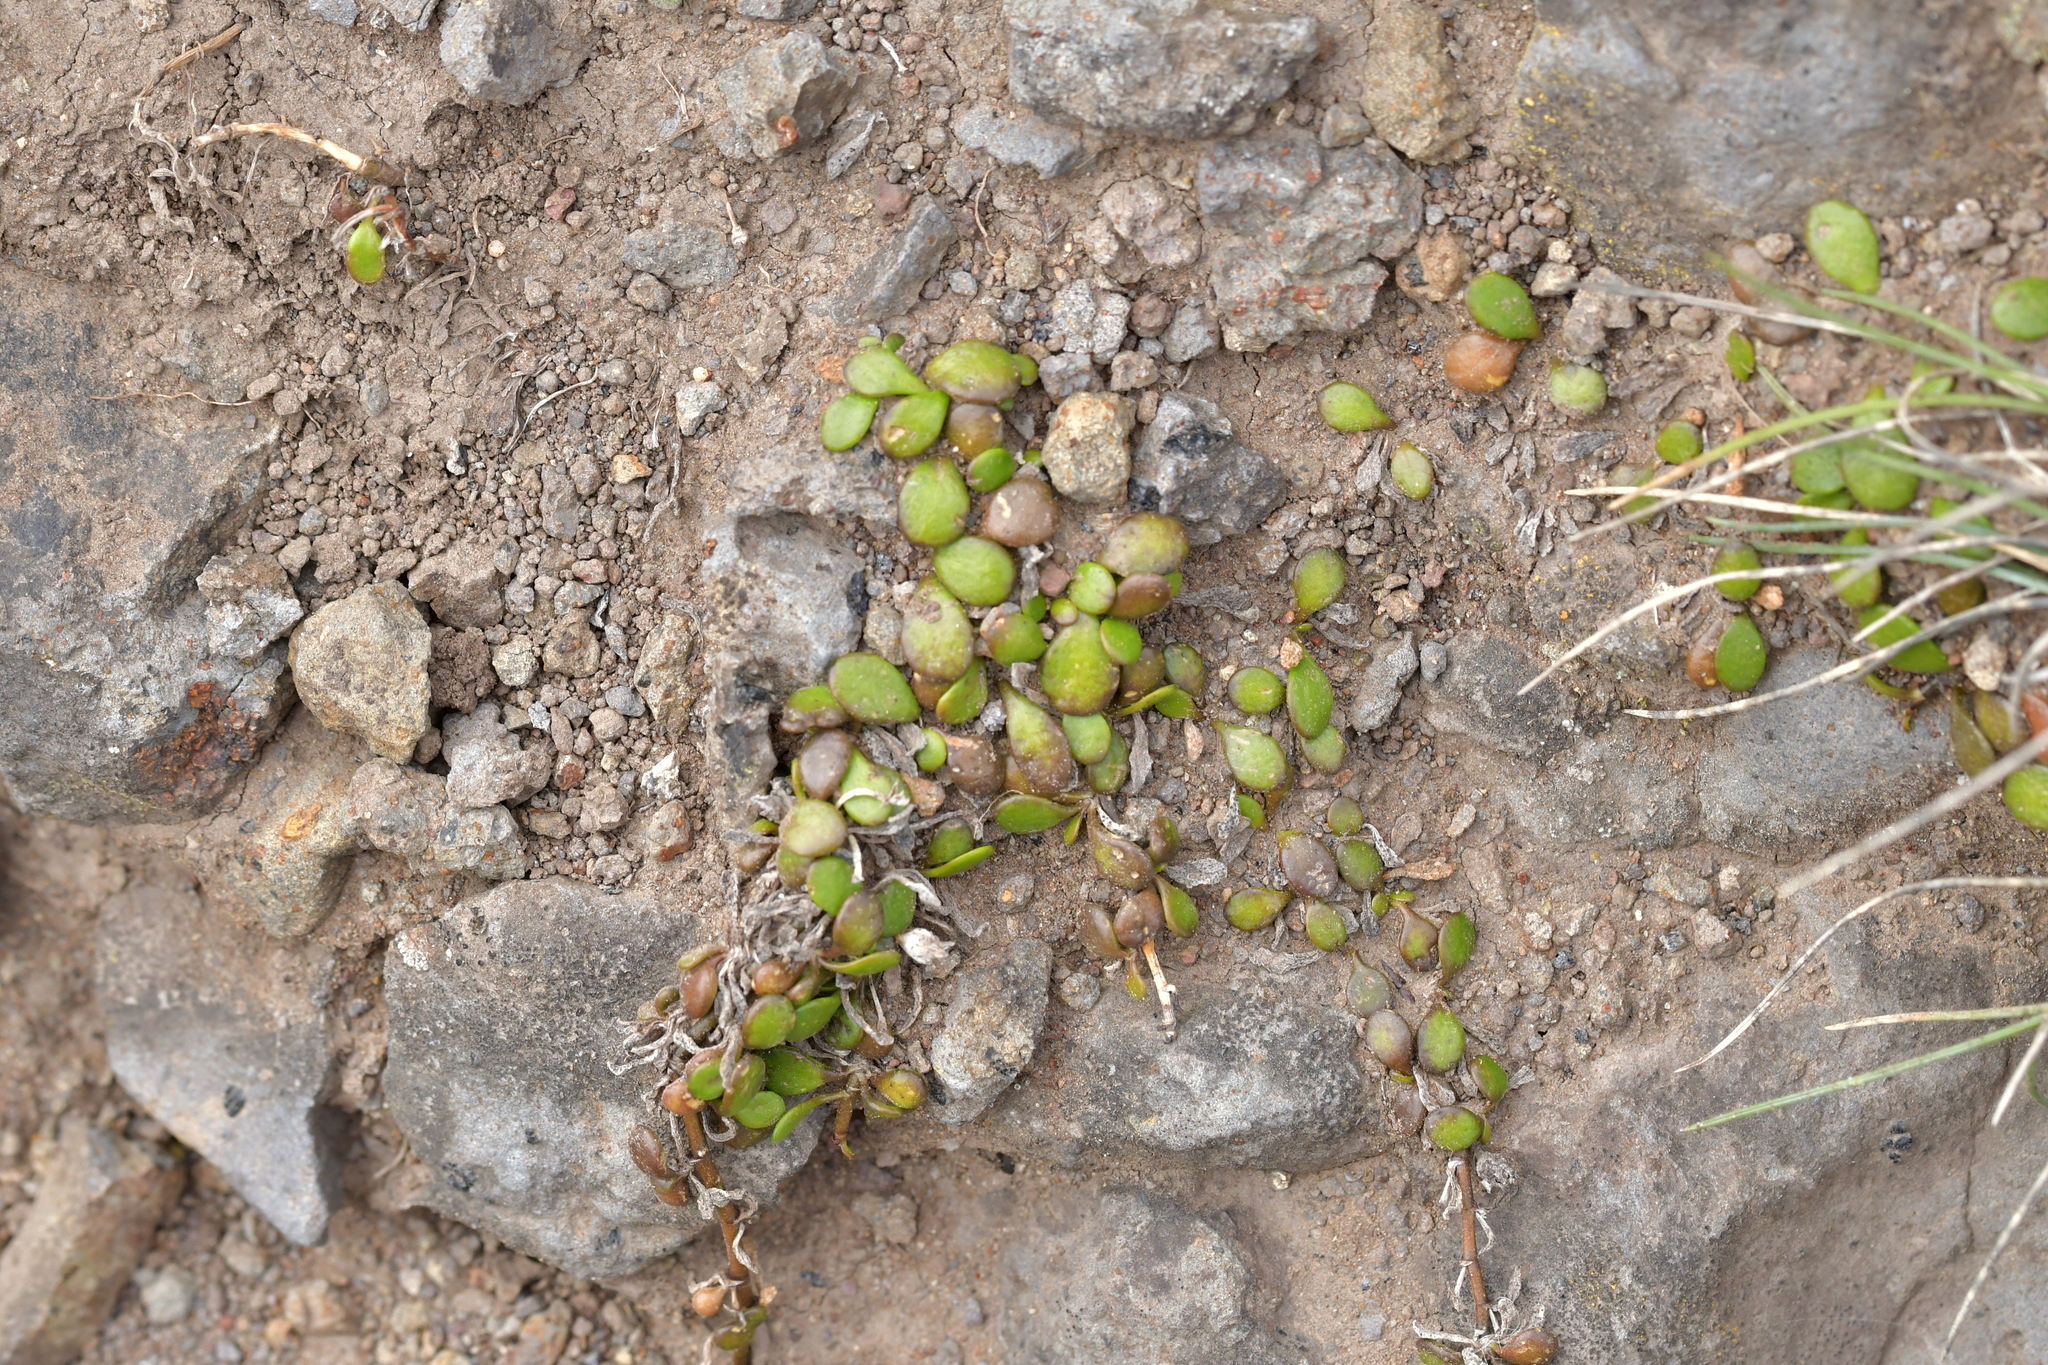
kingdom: Plantae
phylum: Tracheophyta
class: Magnoliopsida
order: Asterales
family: Goodeniaceae
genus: Goodenia
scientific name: Goodenia radicans
